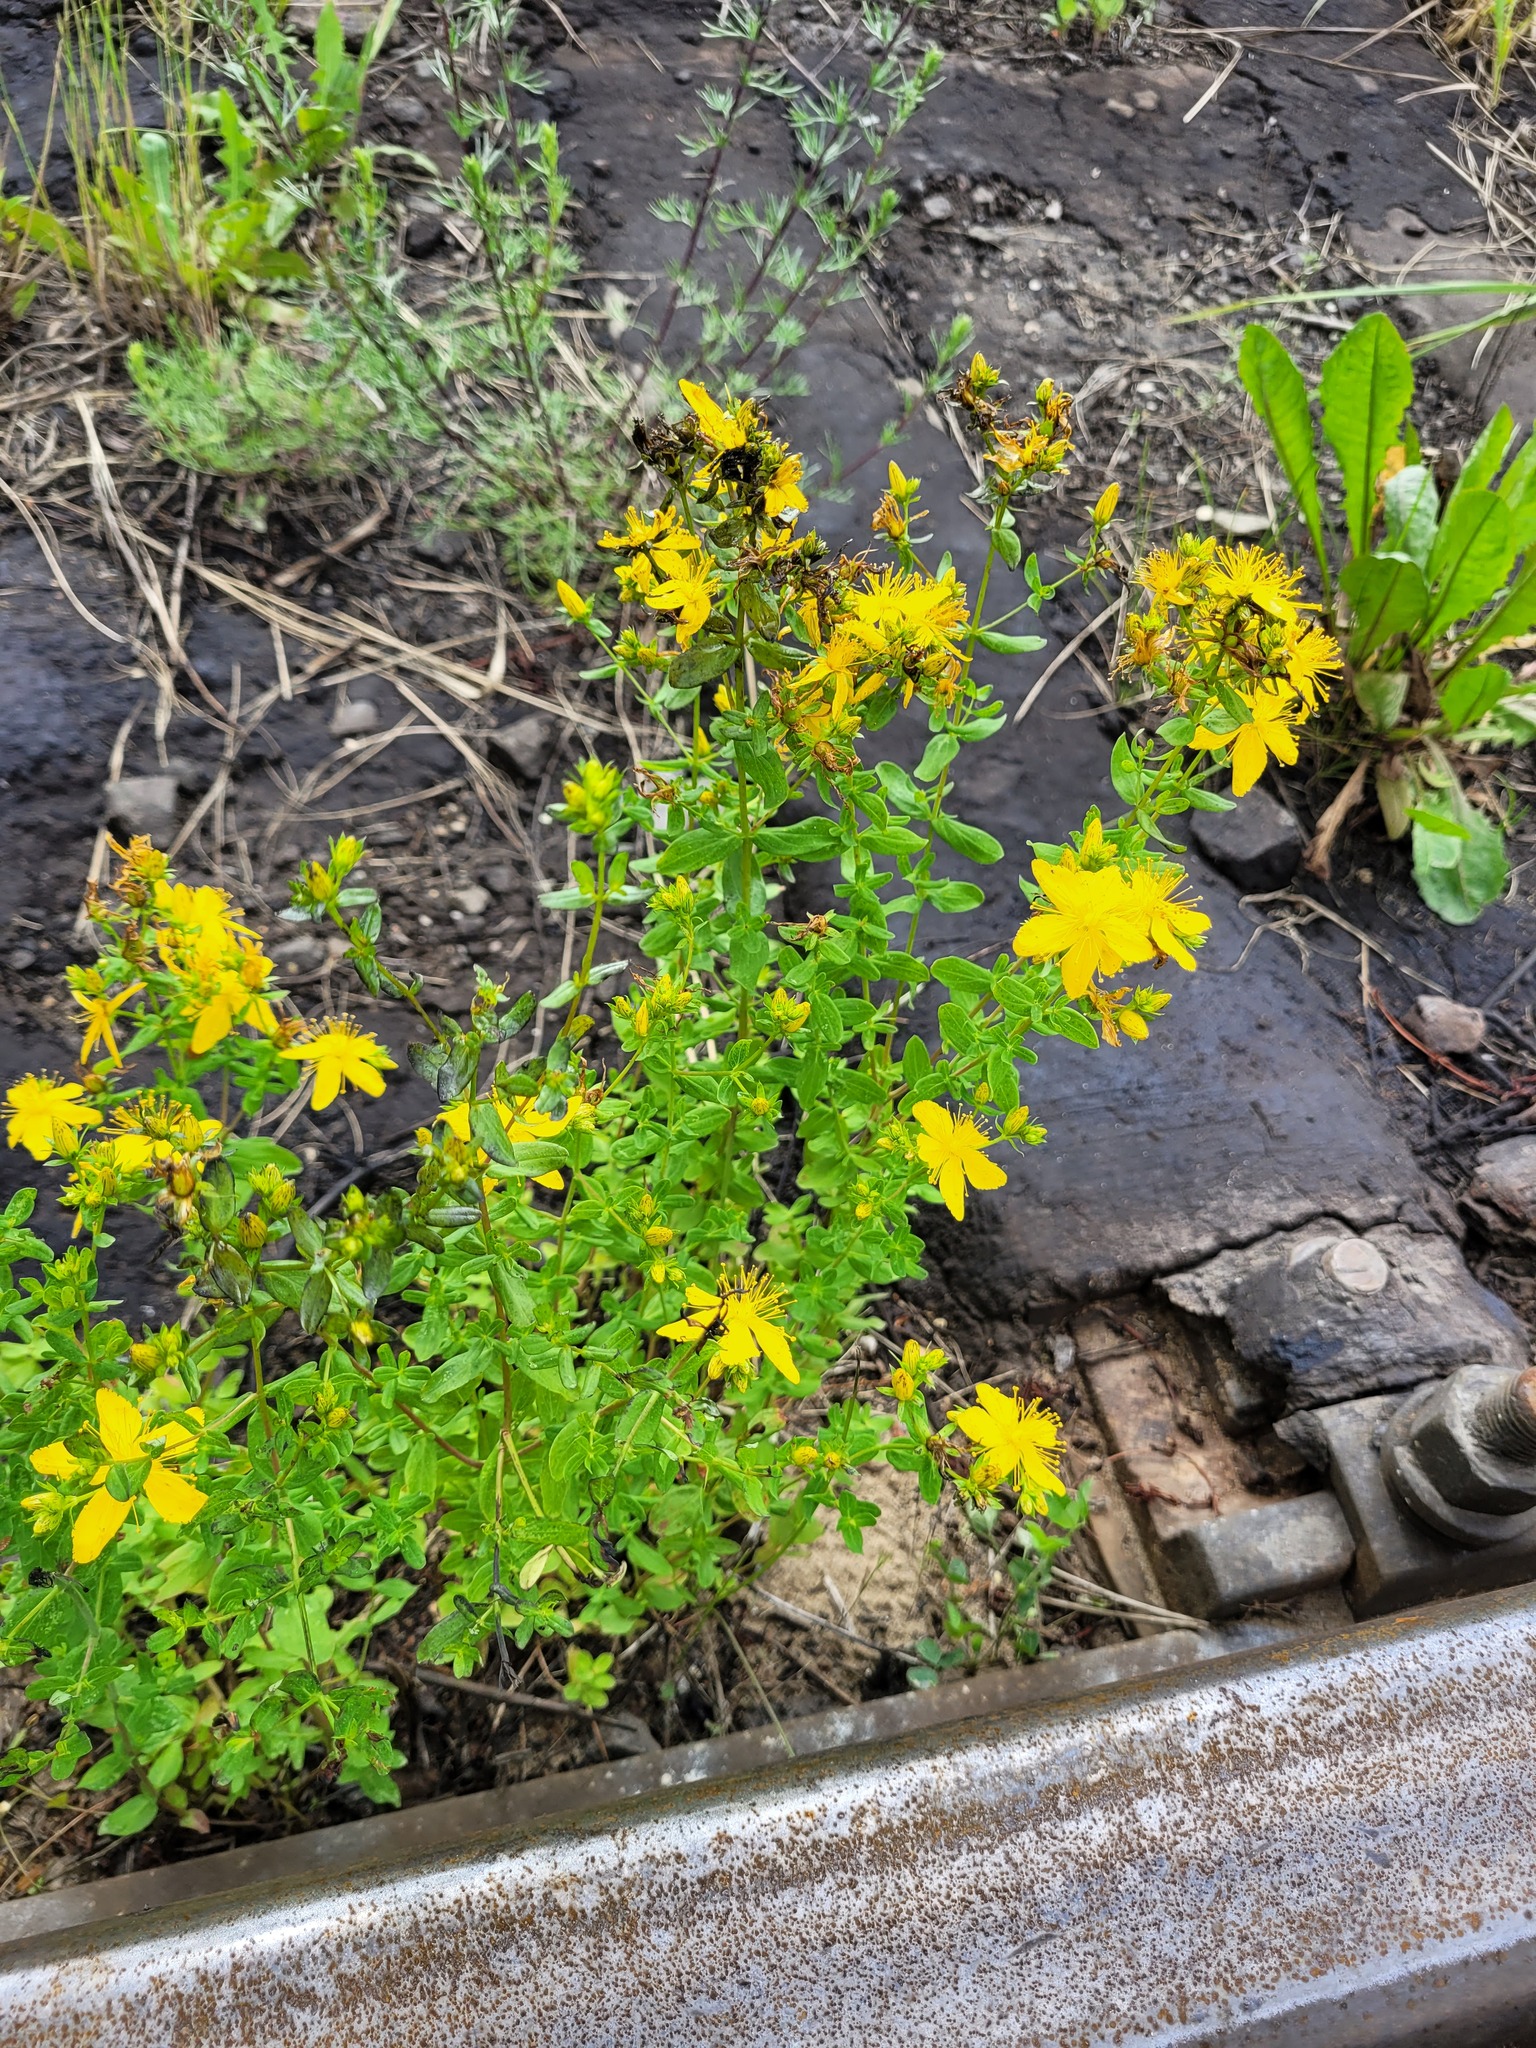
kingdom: Plantae
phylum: Tracheophyta
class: Magnoliopsida
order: Malpighiales
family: Hypericaceae
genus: Hypericum
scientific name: Hypericum perforatum
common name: Common st. johnswort
